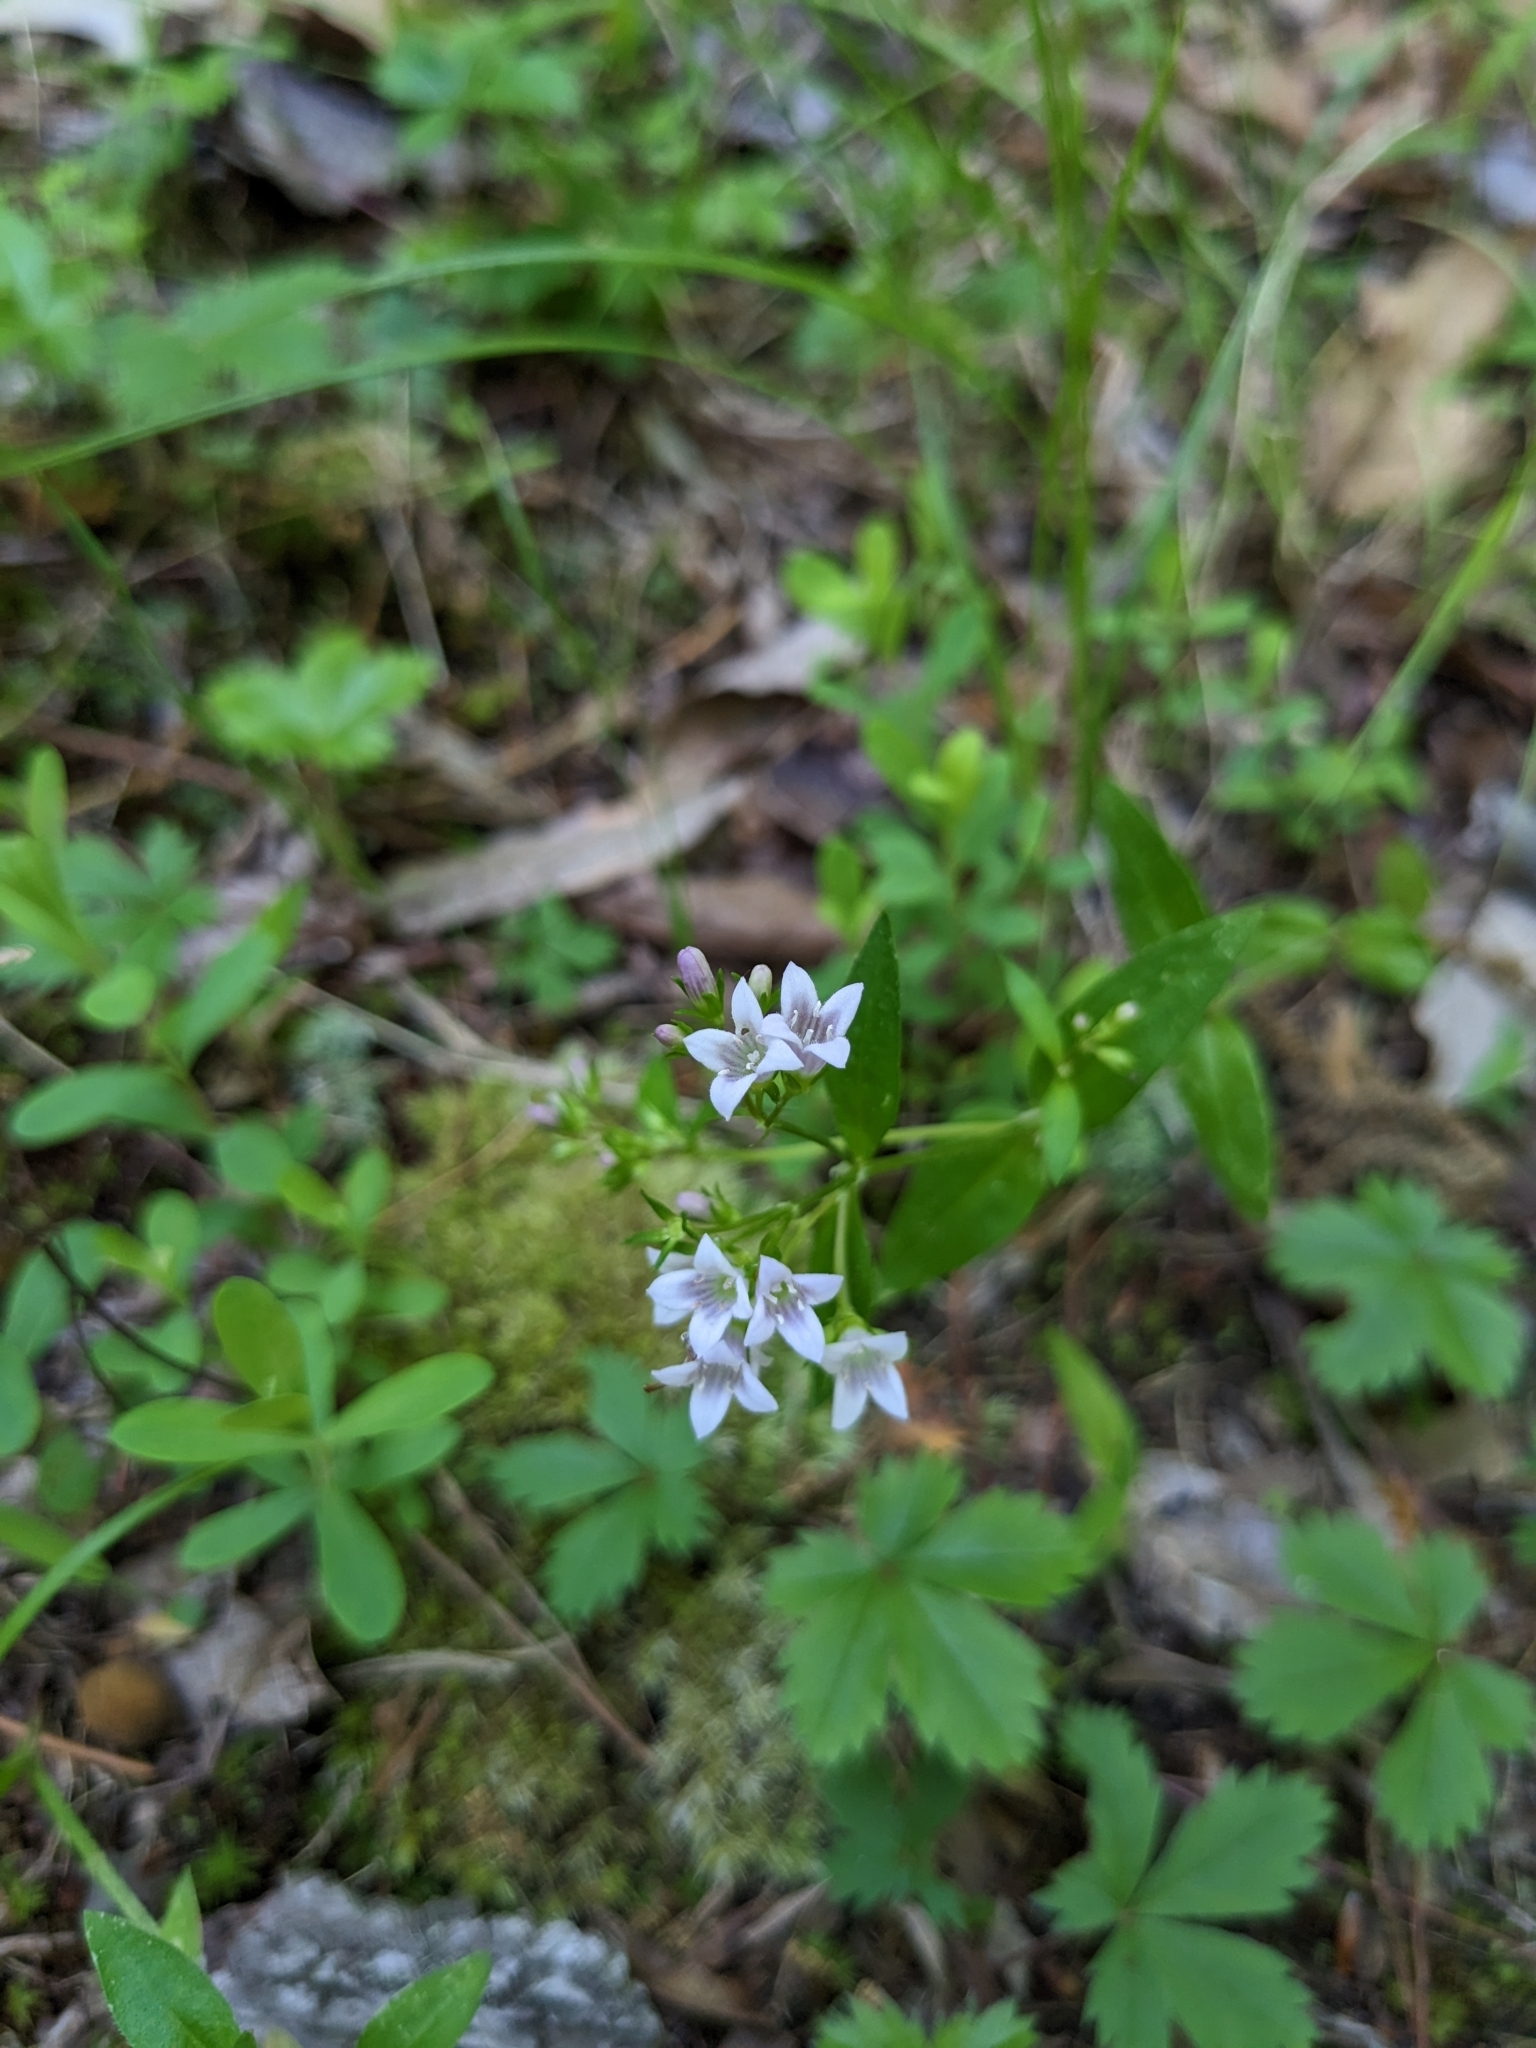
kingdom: Plantae
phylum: Tracheophyta
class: Magnoliopsida
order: Gentianales
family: Rubiaceae
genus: Houstonia
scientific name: Houstonia purpurea
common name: Summer bluet
